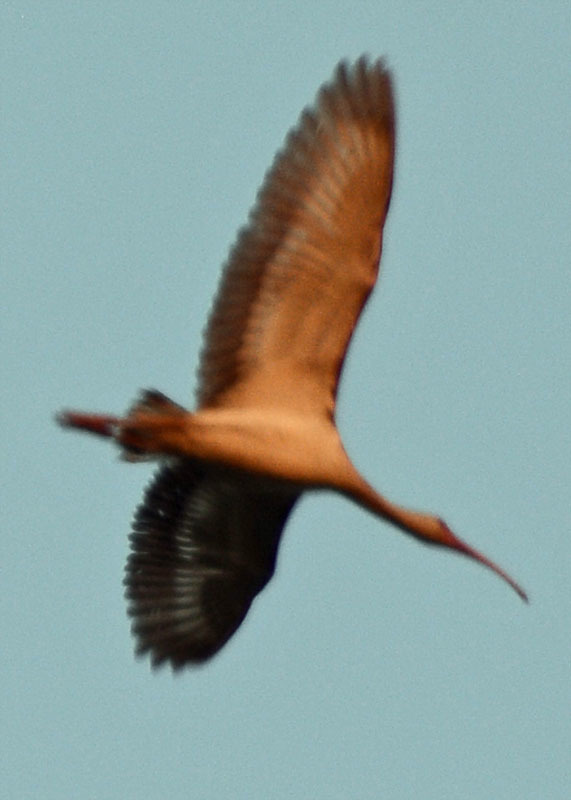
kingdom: Animalia
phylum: Chordata
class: Aves
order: Pelecaniformes
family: Threskiornithidae
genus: Eudocimus
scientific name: Eudocimus albus
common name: White ibis
